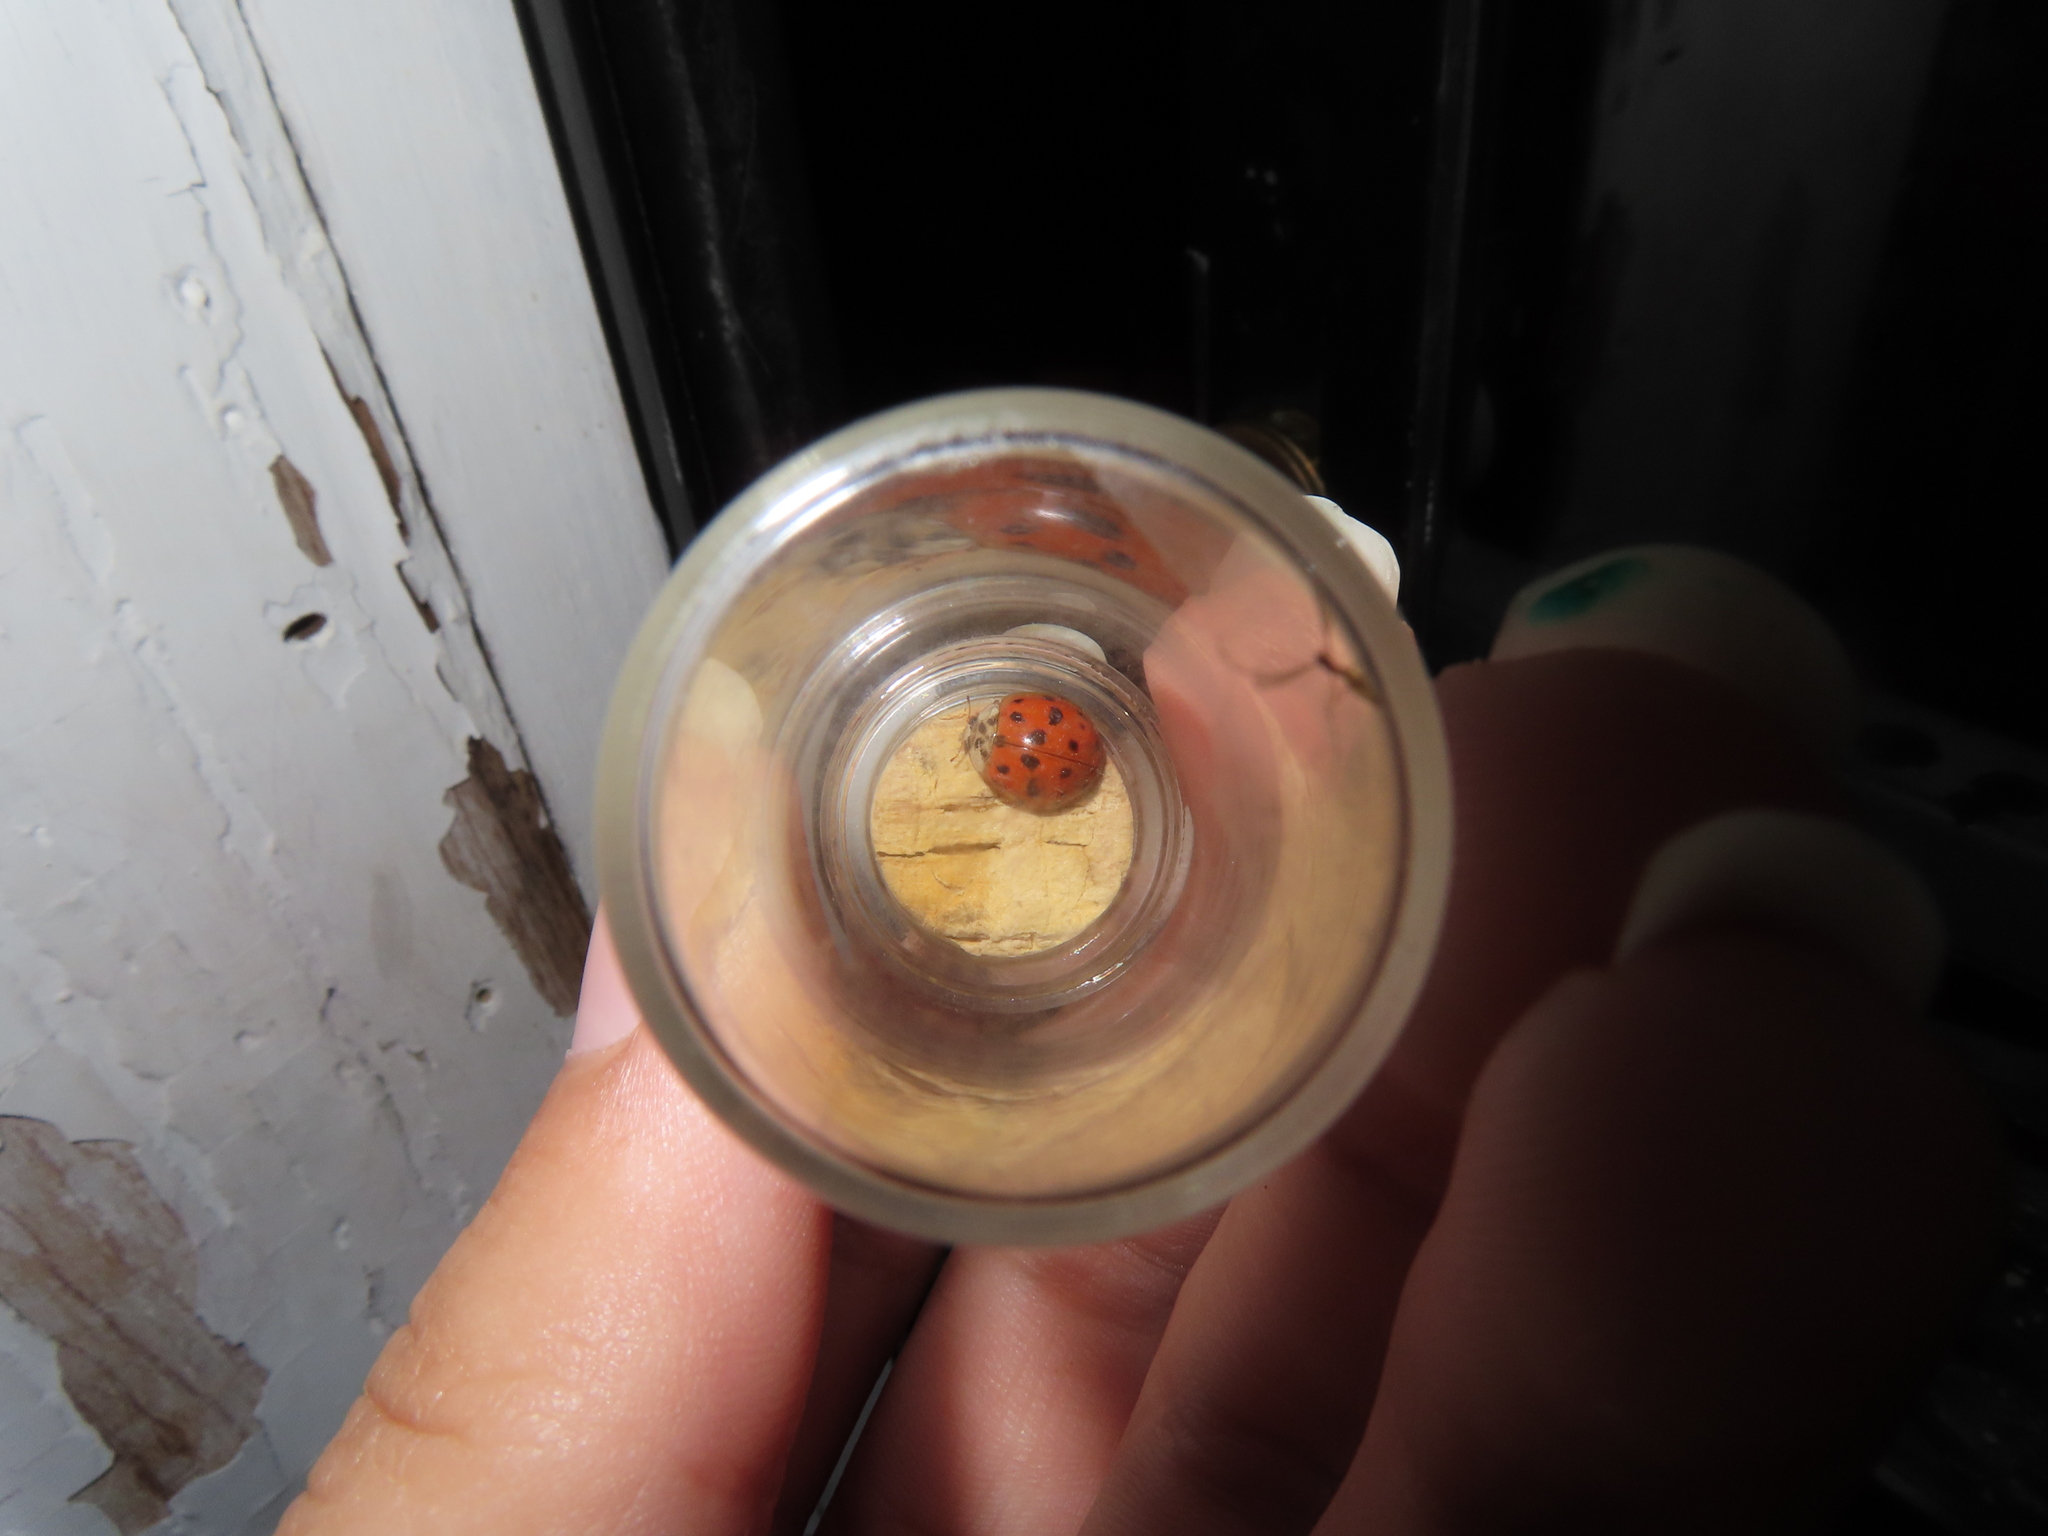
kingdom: Animalia
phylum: Arthropoda
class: Insecta
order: Coleoptera
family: Coccinellidae
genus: Harmonia
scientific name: Harmonia axyridis
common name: Harlequin ladybird
